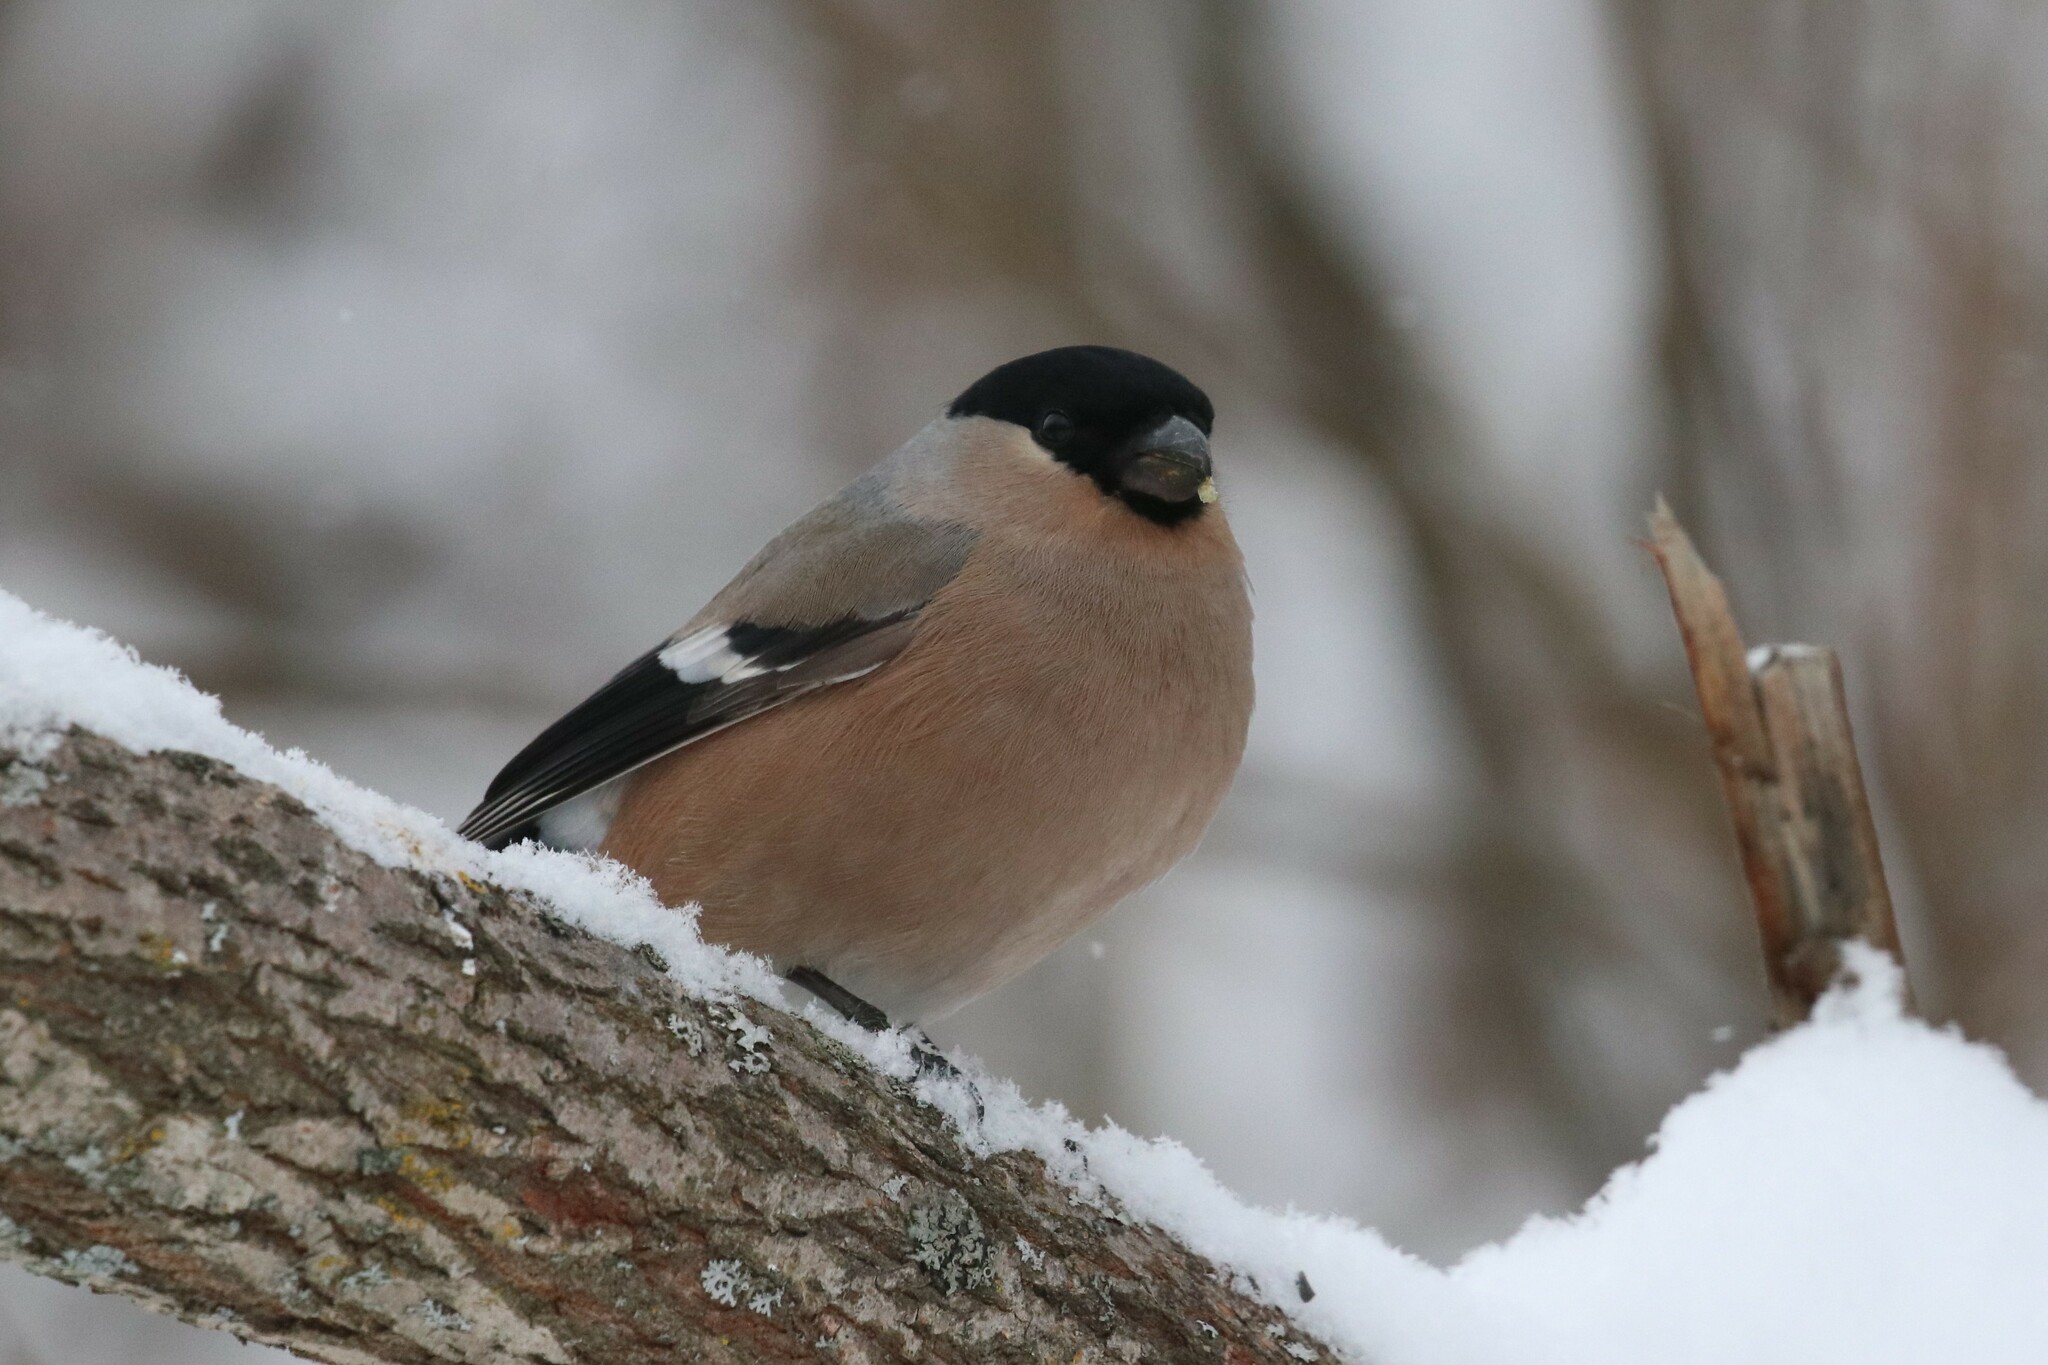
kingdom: Animalia
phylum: Chordata
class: Aves
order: Passeriformes
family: Fringillidae
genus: Pyrrhula
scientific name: Pyrrhula pyrrhula
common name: Eurasian bullfinch
